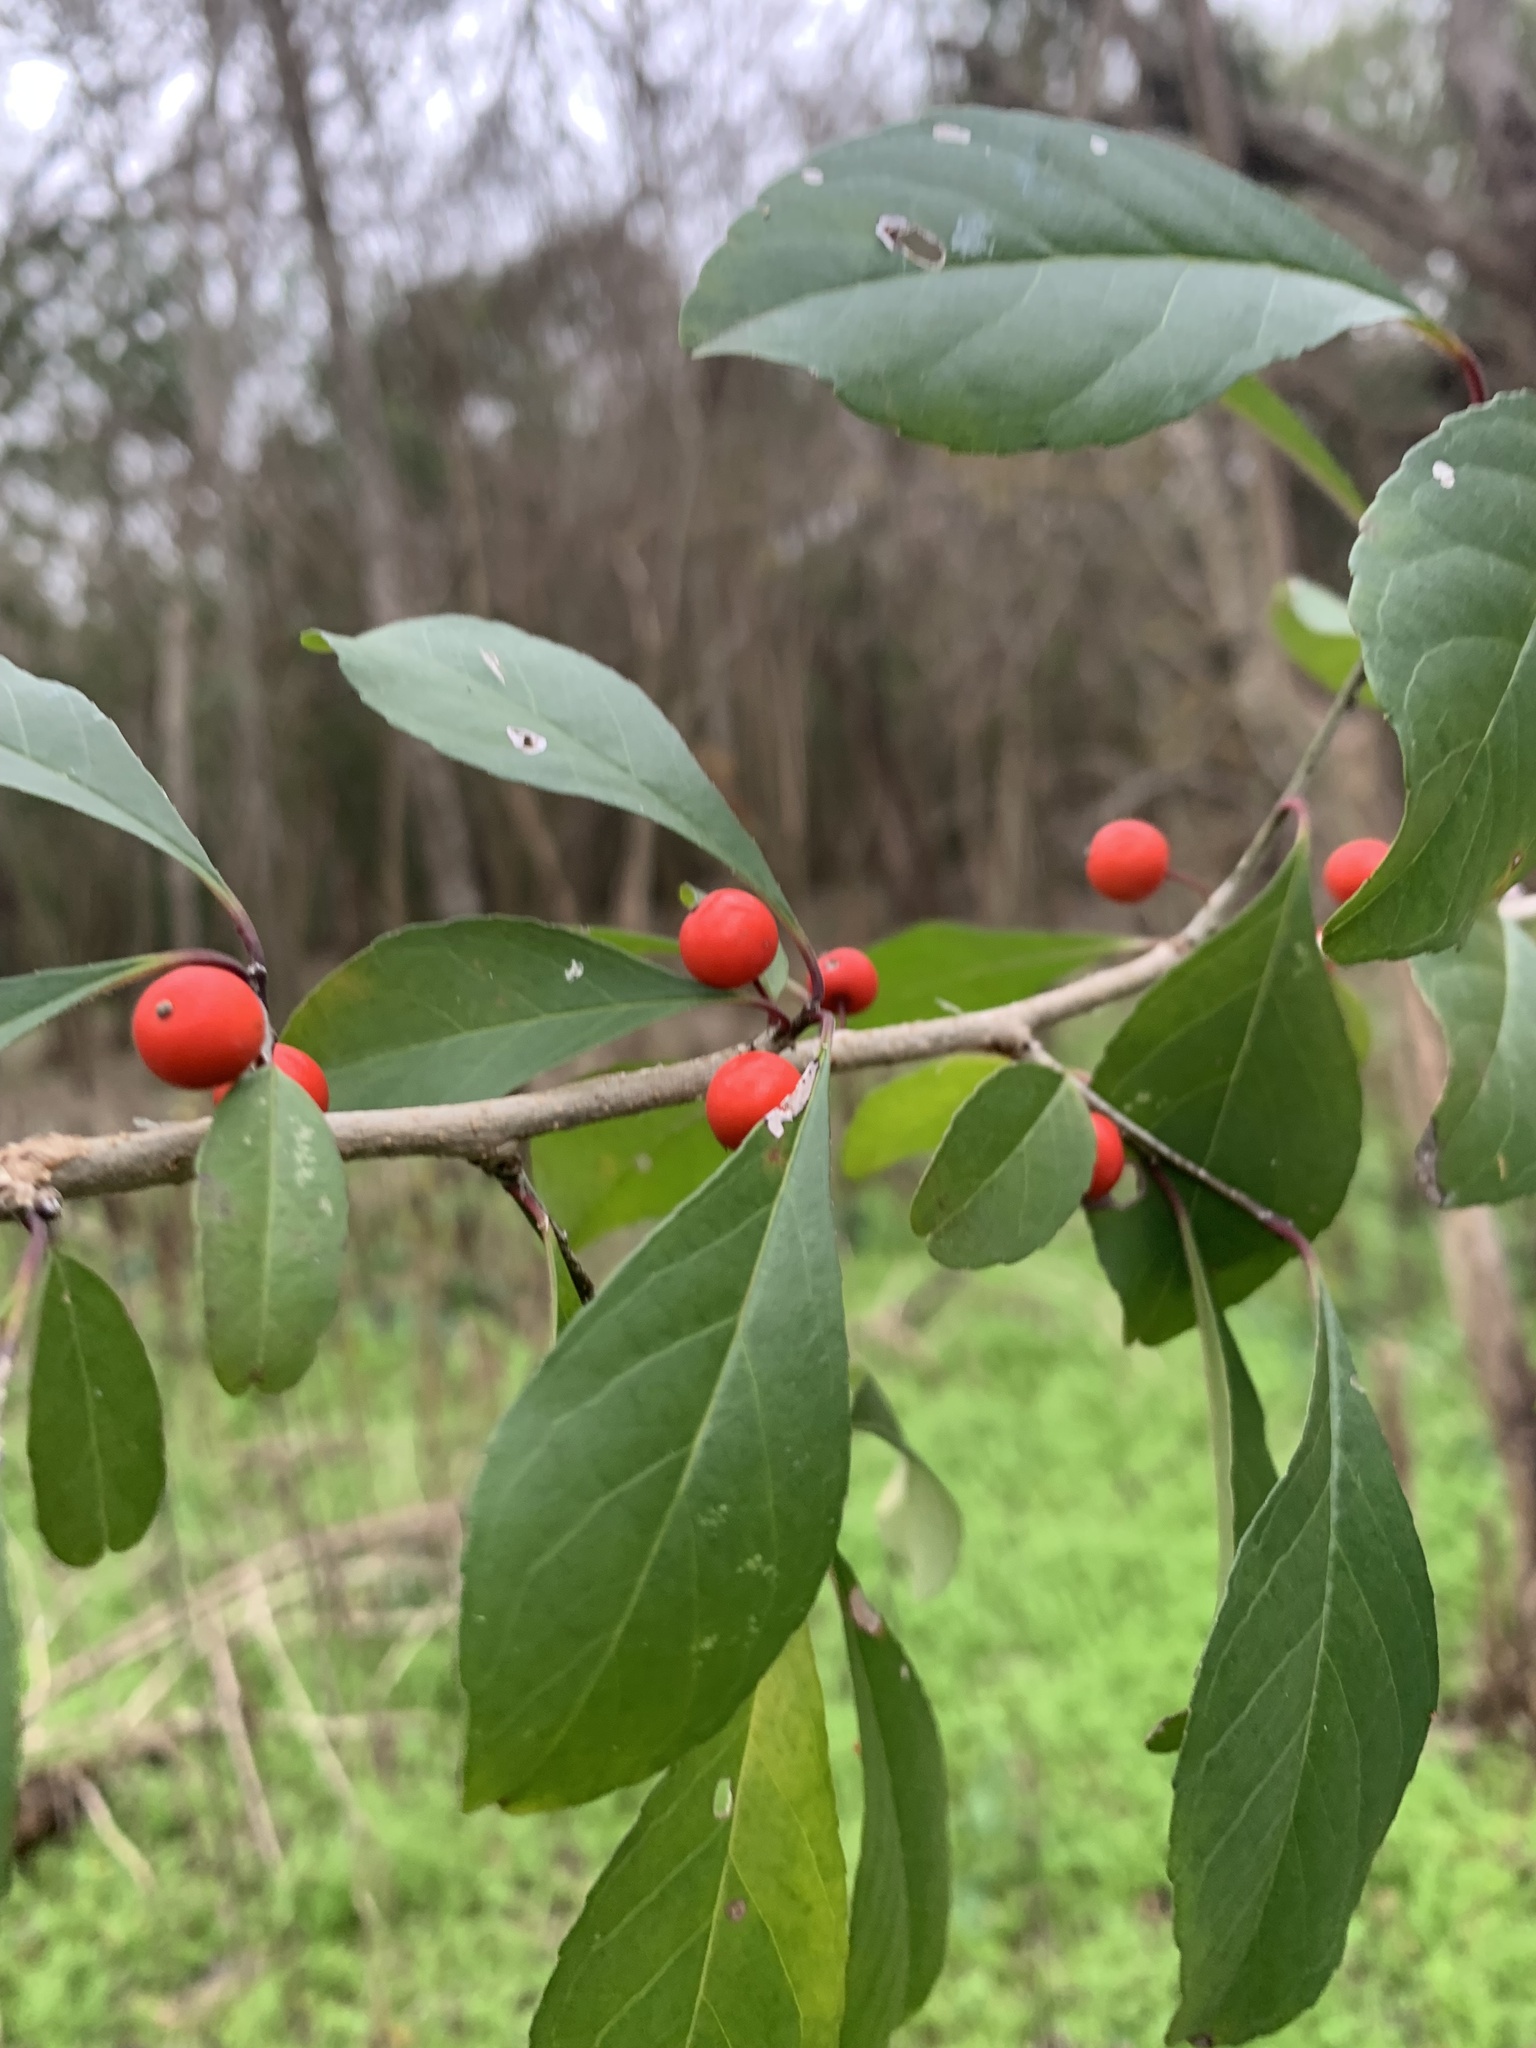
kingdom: Plantae
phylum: Tracheophyta
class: Magnoliopsida
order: Aquifoliales
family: Aquifoliaceae
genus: Ilex
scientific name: Ilex decidua
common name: Possum-haw
